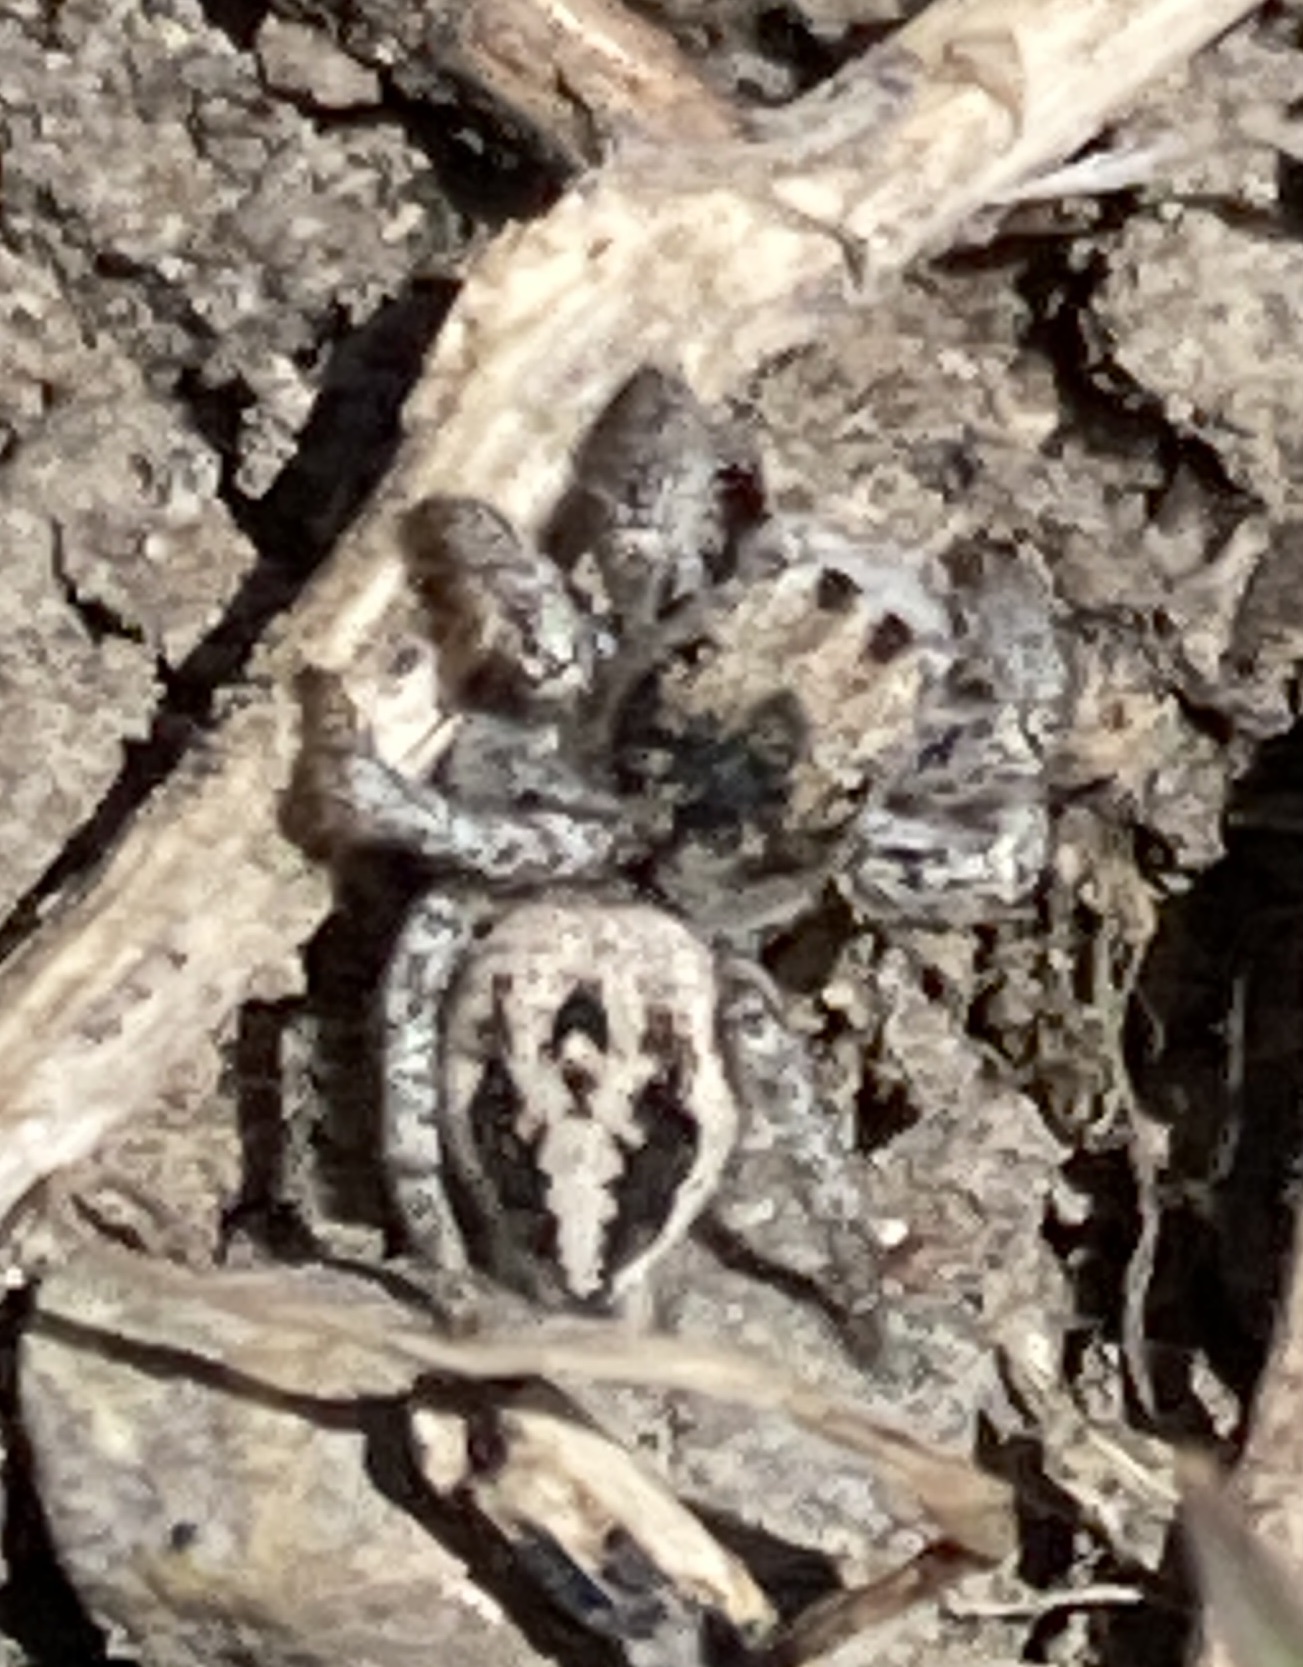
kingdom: Animalia
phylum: Arthropoda
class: Arachnida
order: Araneae
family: Salticidae
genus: Habronattus
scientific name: Habronattus tarsalis
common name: Jumping spider
